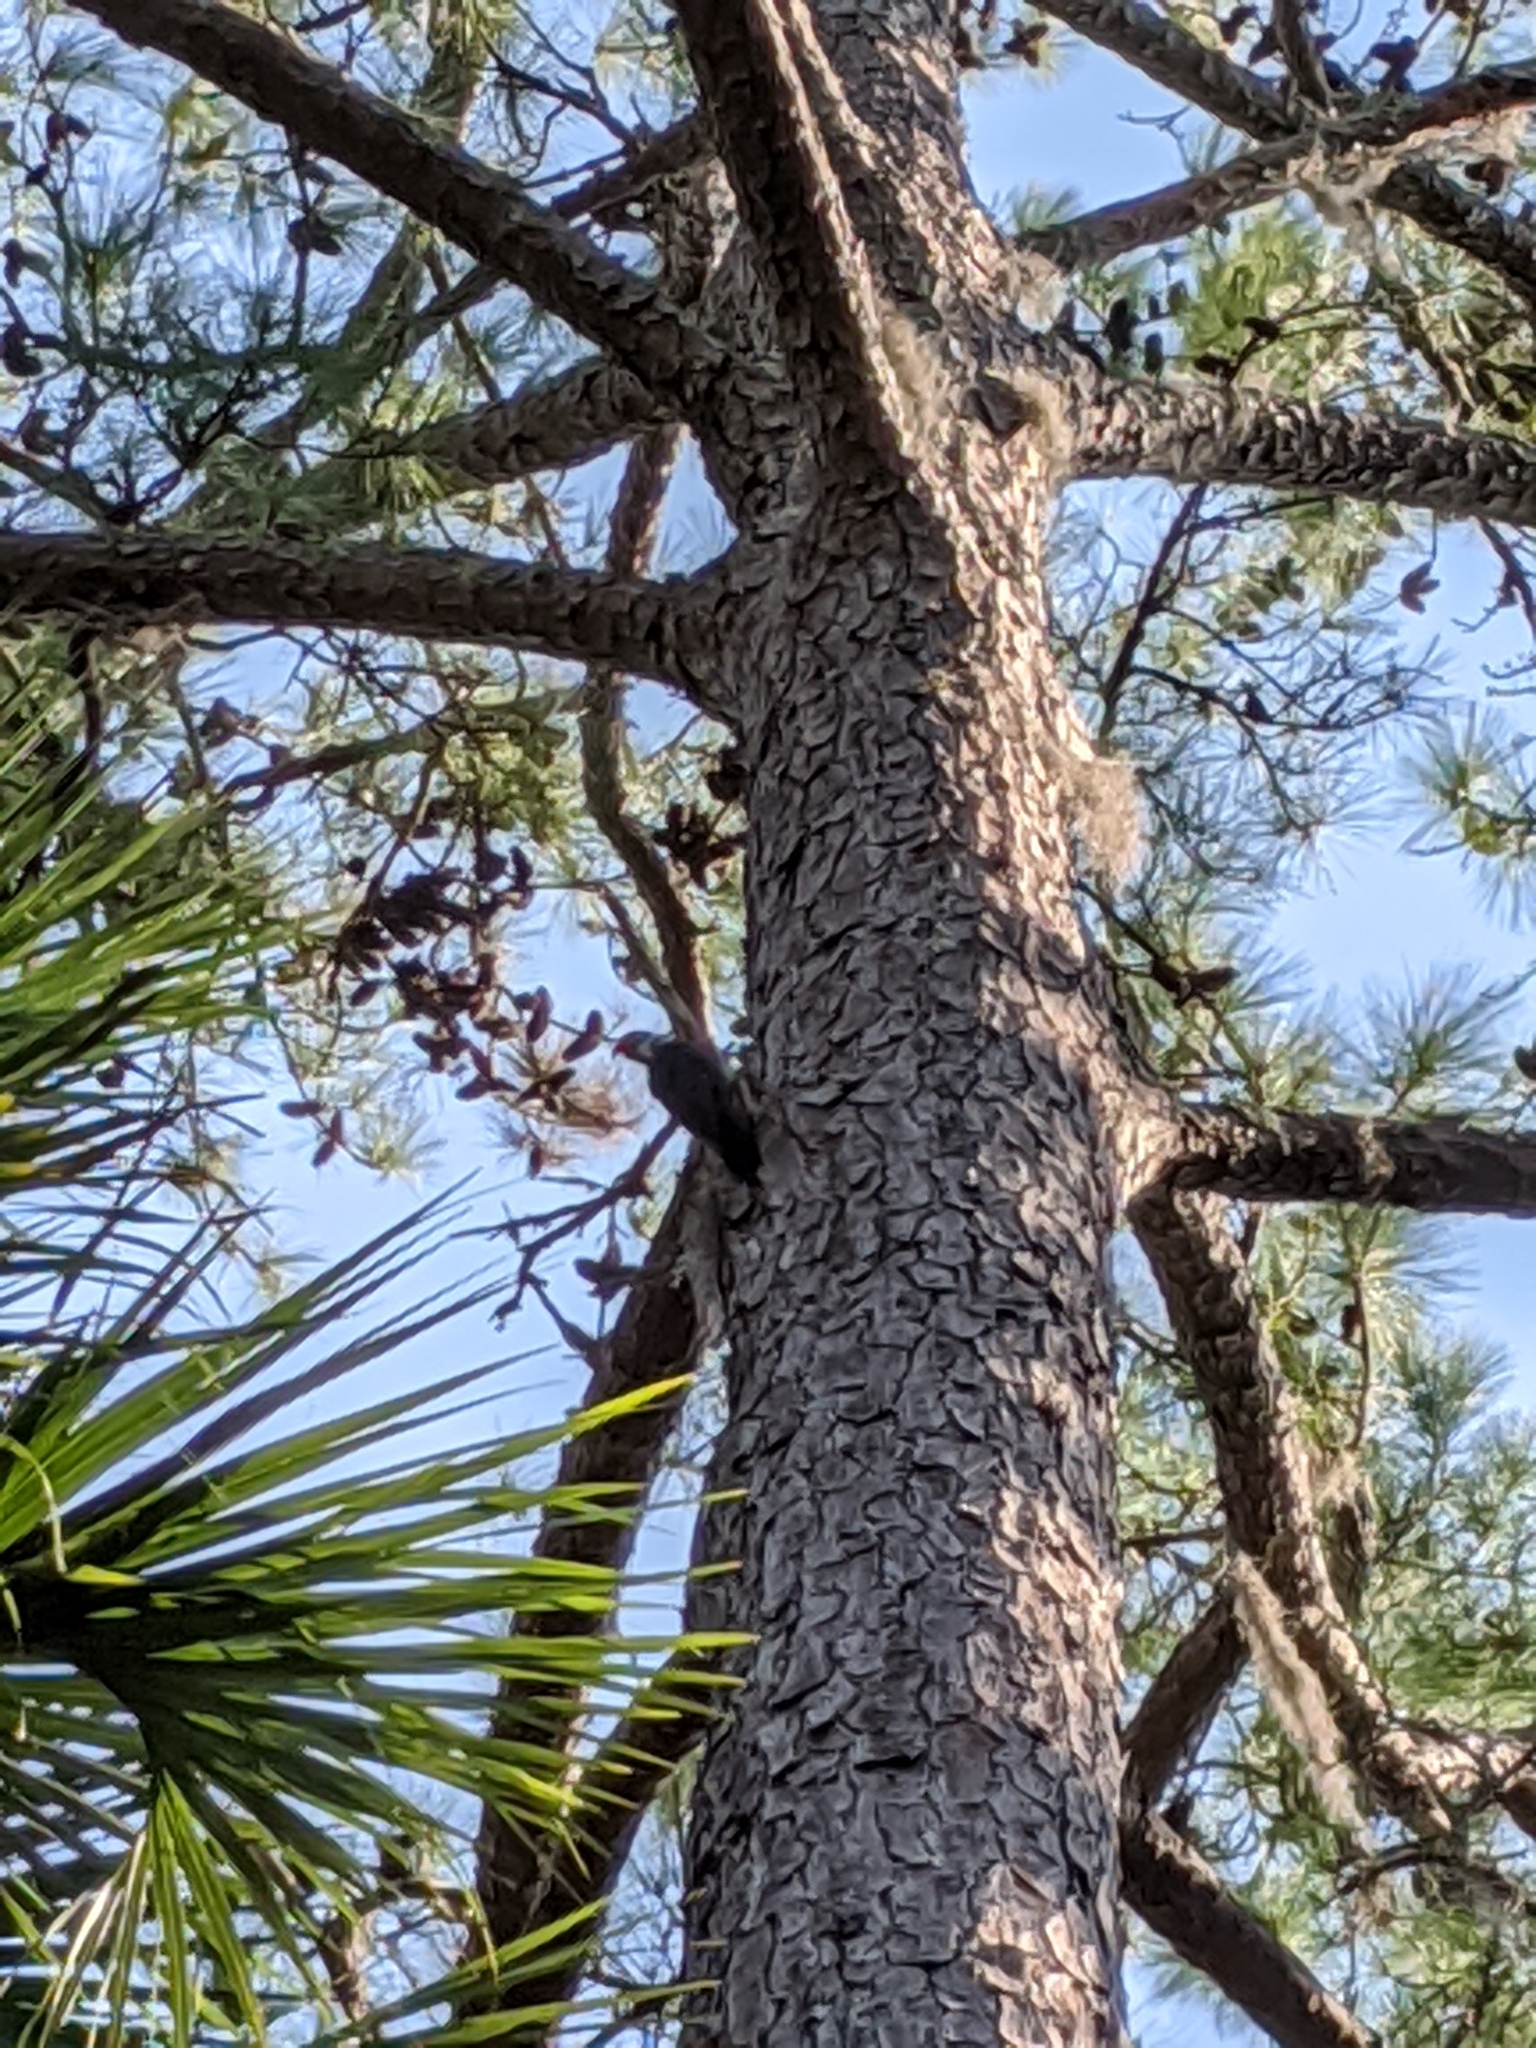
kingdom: Animalia
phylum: Chordata
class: Aves
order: Piciformes
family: Picidae
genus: Dryocopus
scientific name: Dryocopus pileatus
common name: Pileated woodpecker
